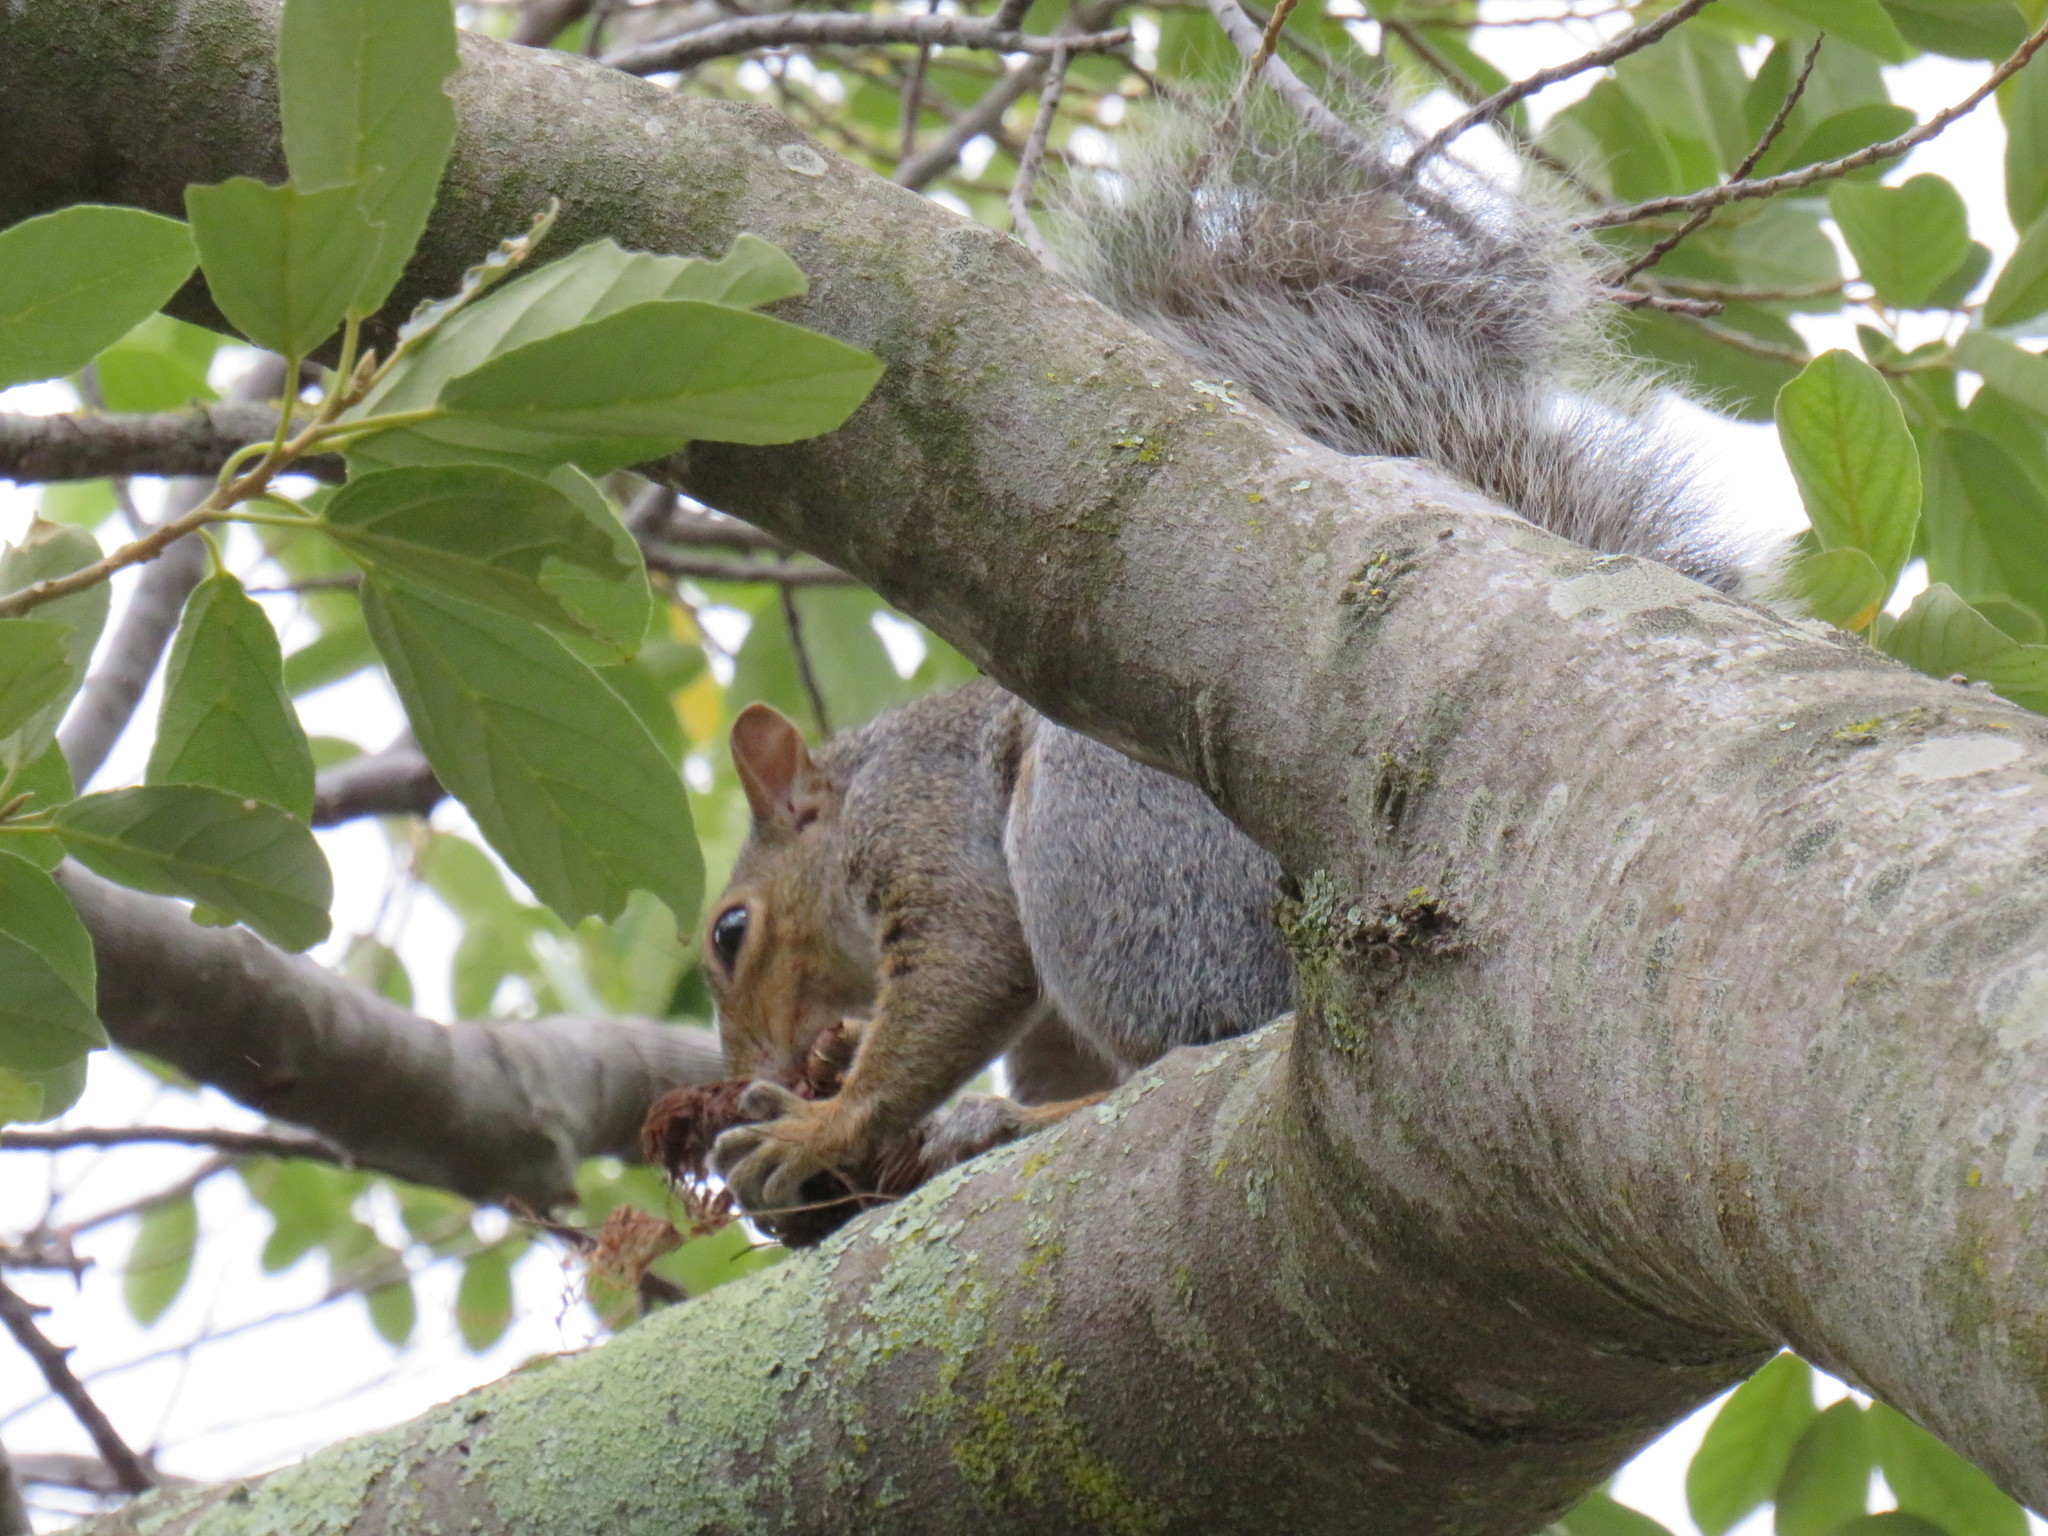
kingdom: Animalia
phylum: Chordata
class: Mammalia
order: Rodentia
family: Sciuridae
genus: Sciurus
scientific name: Sciurus carolinensis
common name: Eastern gray squirrel
